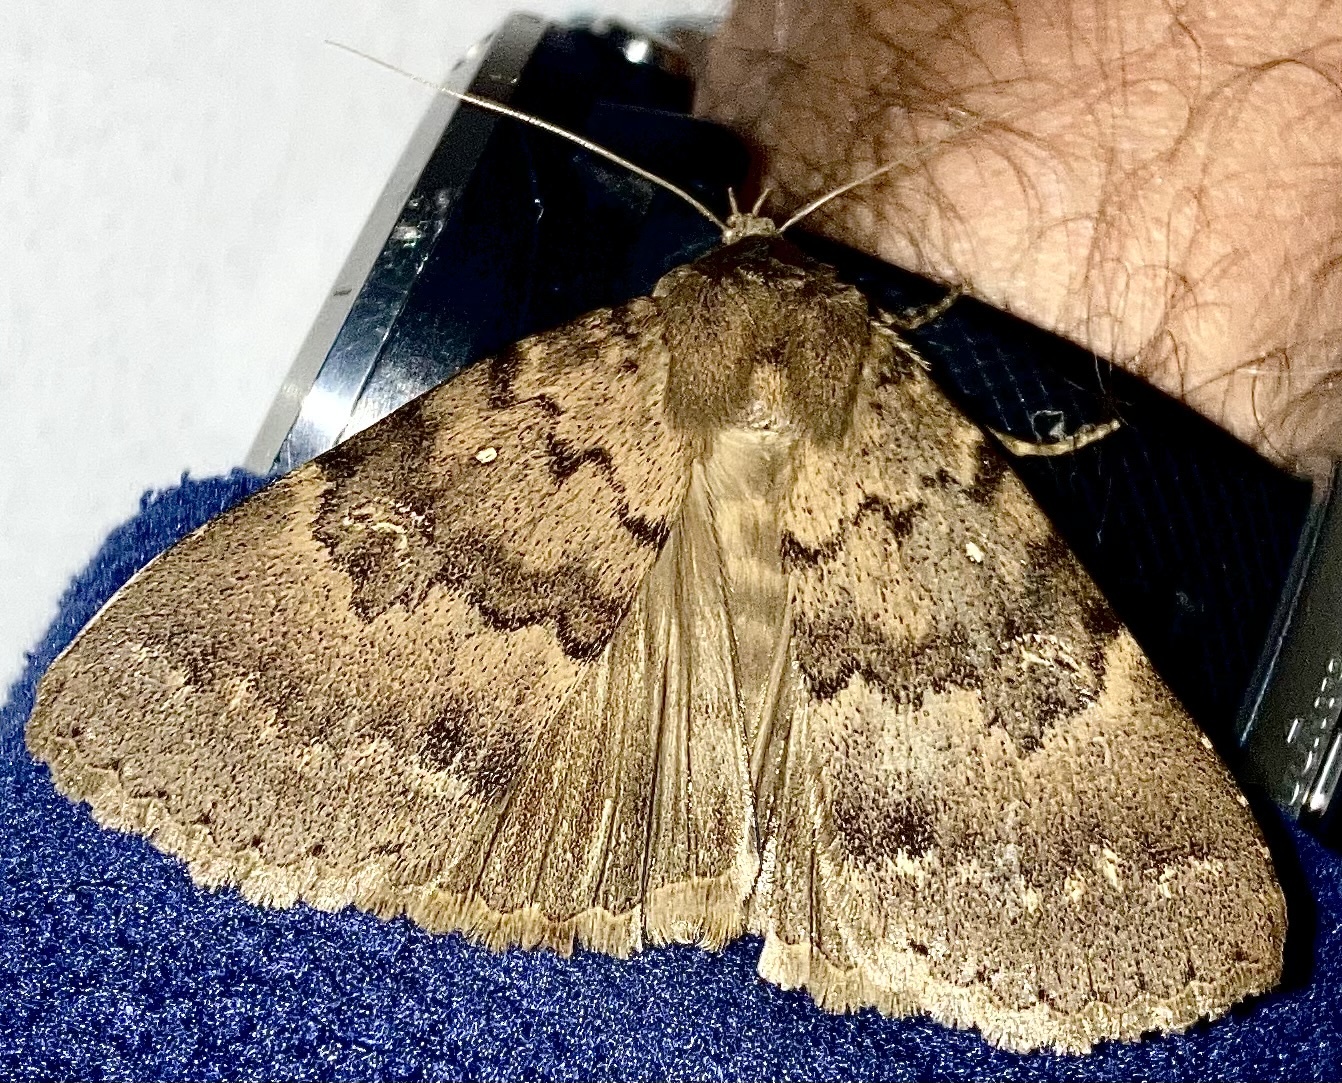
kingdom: Animalia
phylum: Arthropoda
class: Insecta
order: Lepidoptera
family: Erebidae
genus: Apopestes
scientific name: Apopestes spectrum
